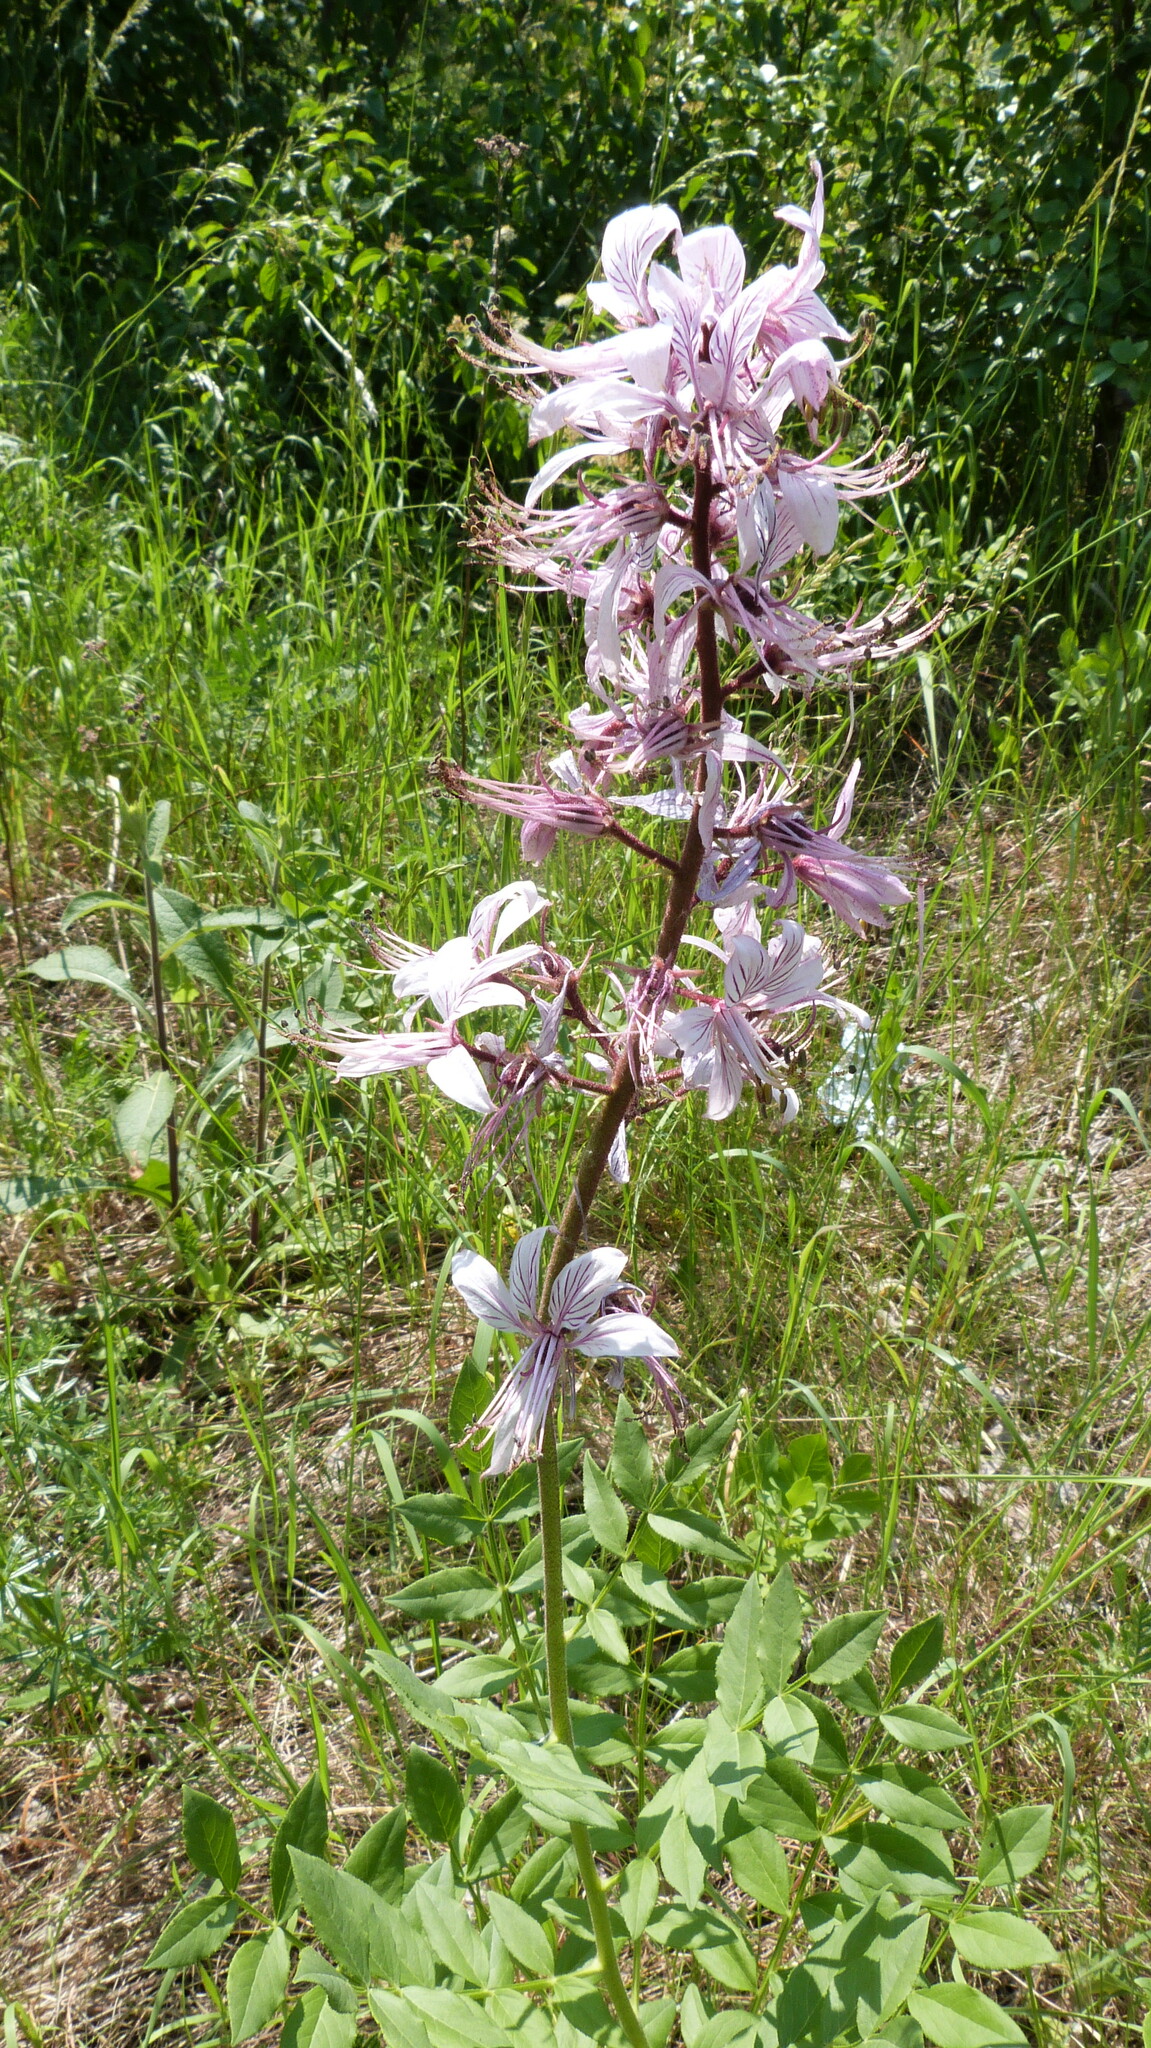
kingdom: Plantae
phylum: Tracheophyta
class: Magnoliopsida
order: Sapindales
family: Rutaceae
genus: Dictamnus
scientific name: Dictamnus albus
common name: Gasplant
